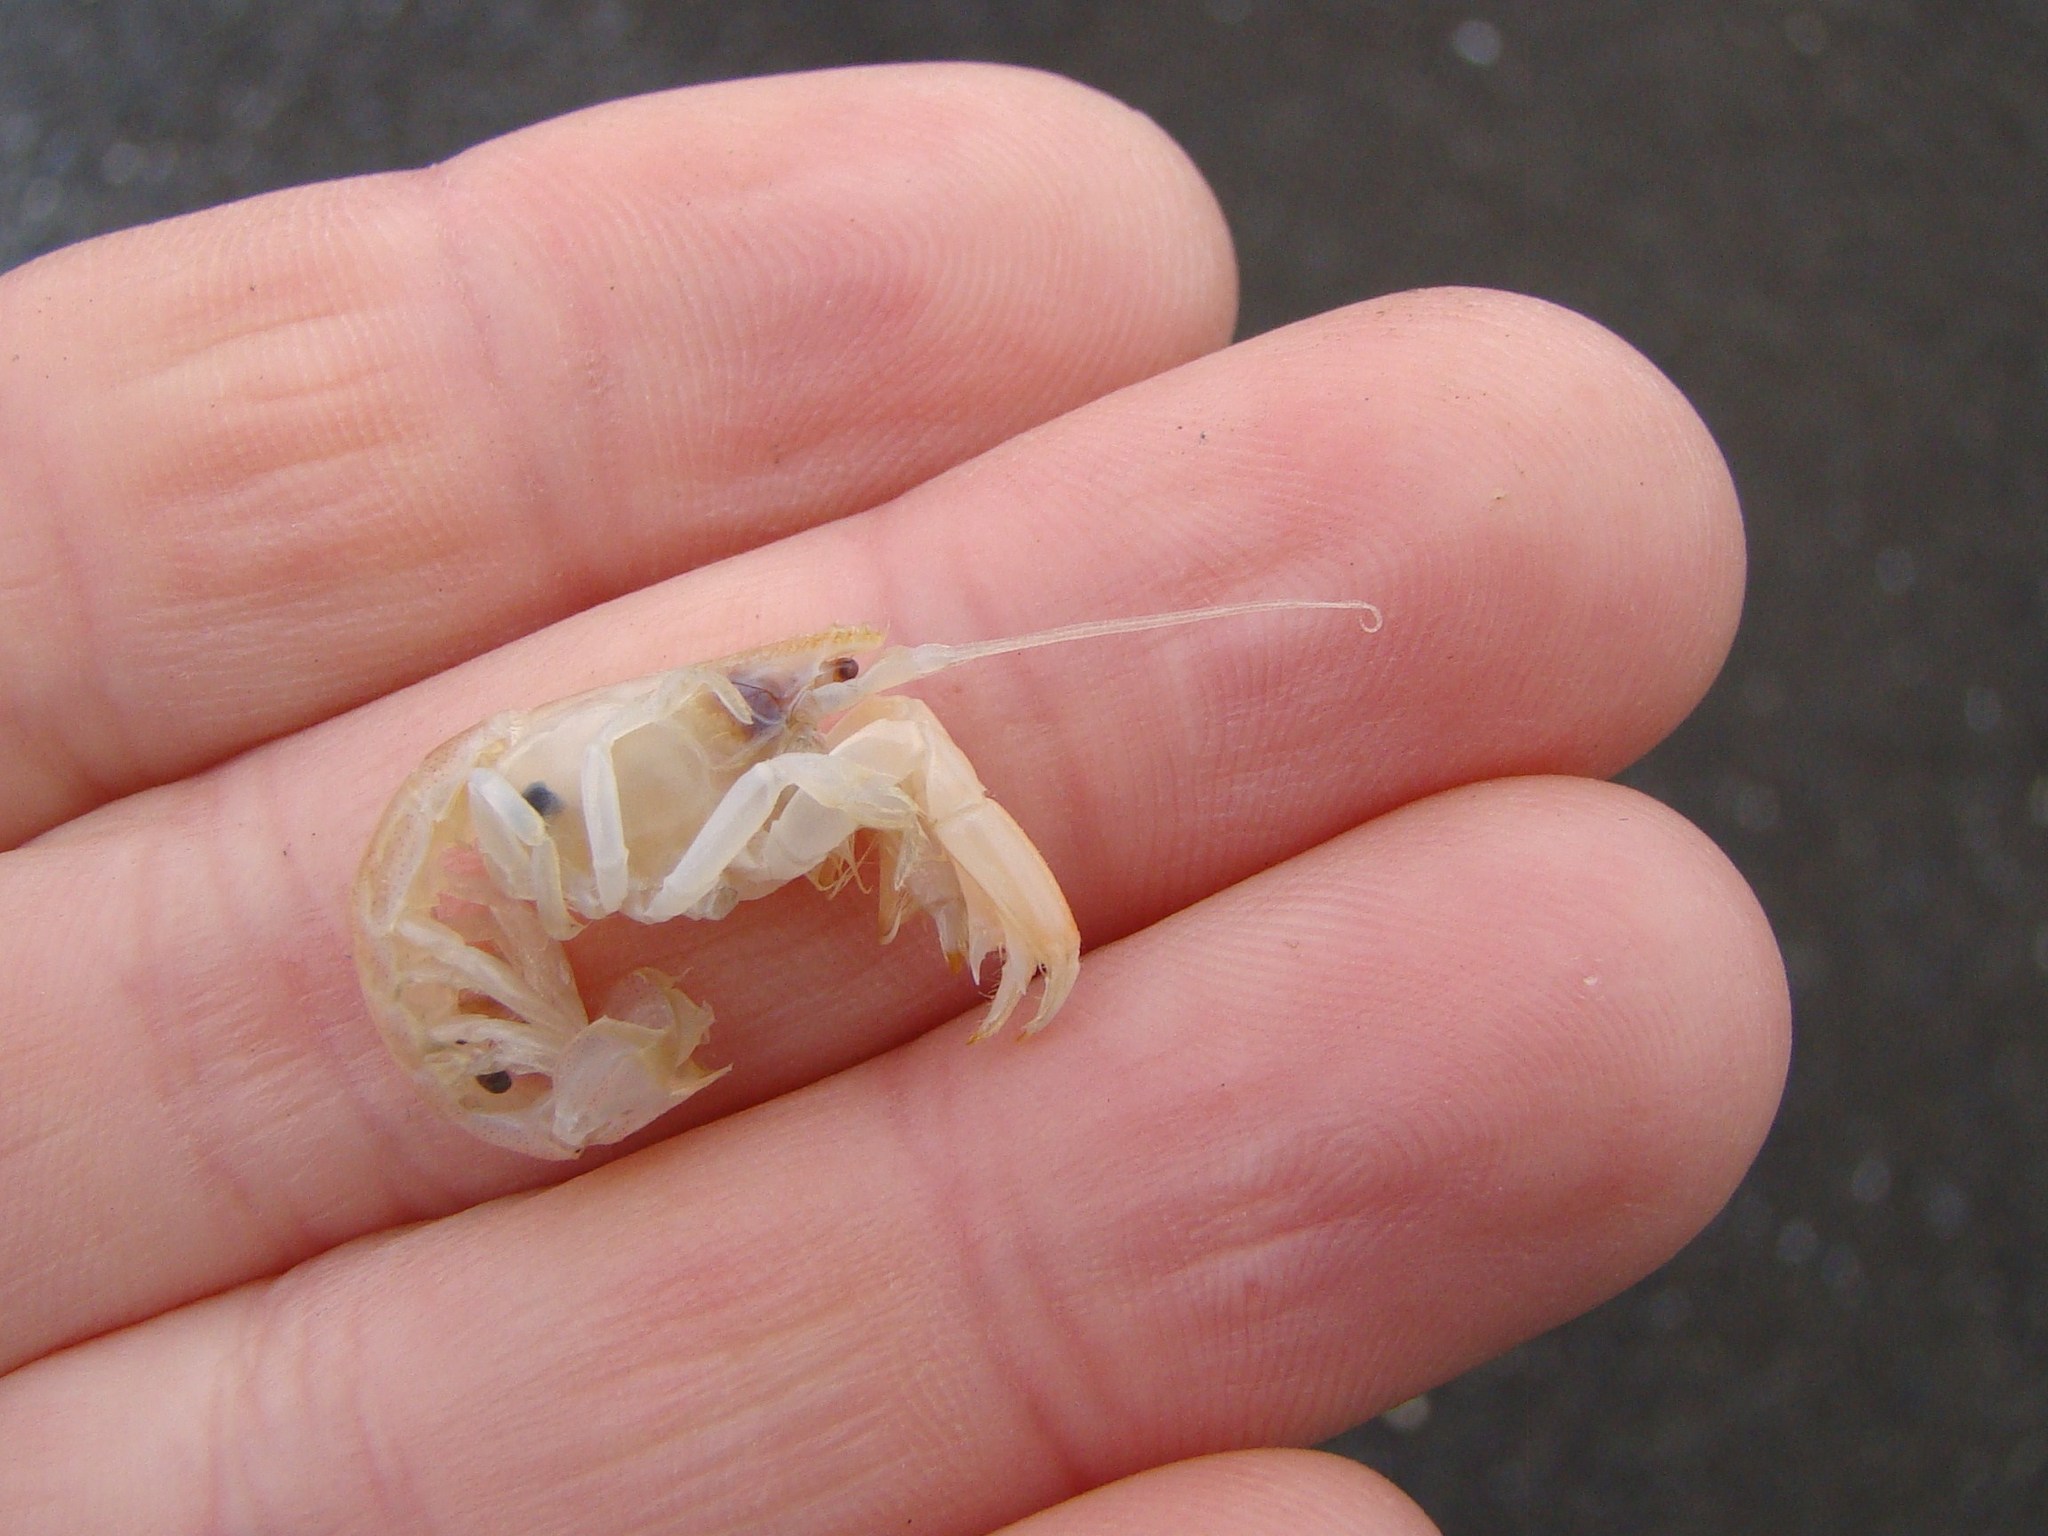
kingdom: Animalia
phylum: Arthropoda
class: Malacostraca
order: Decapoda
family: Upogebiidae
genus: Upogebia
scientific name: Upogebia hirtifrons
